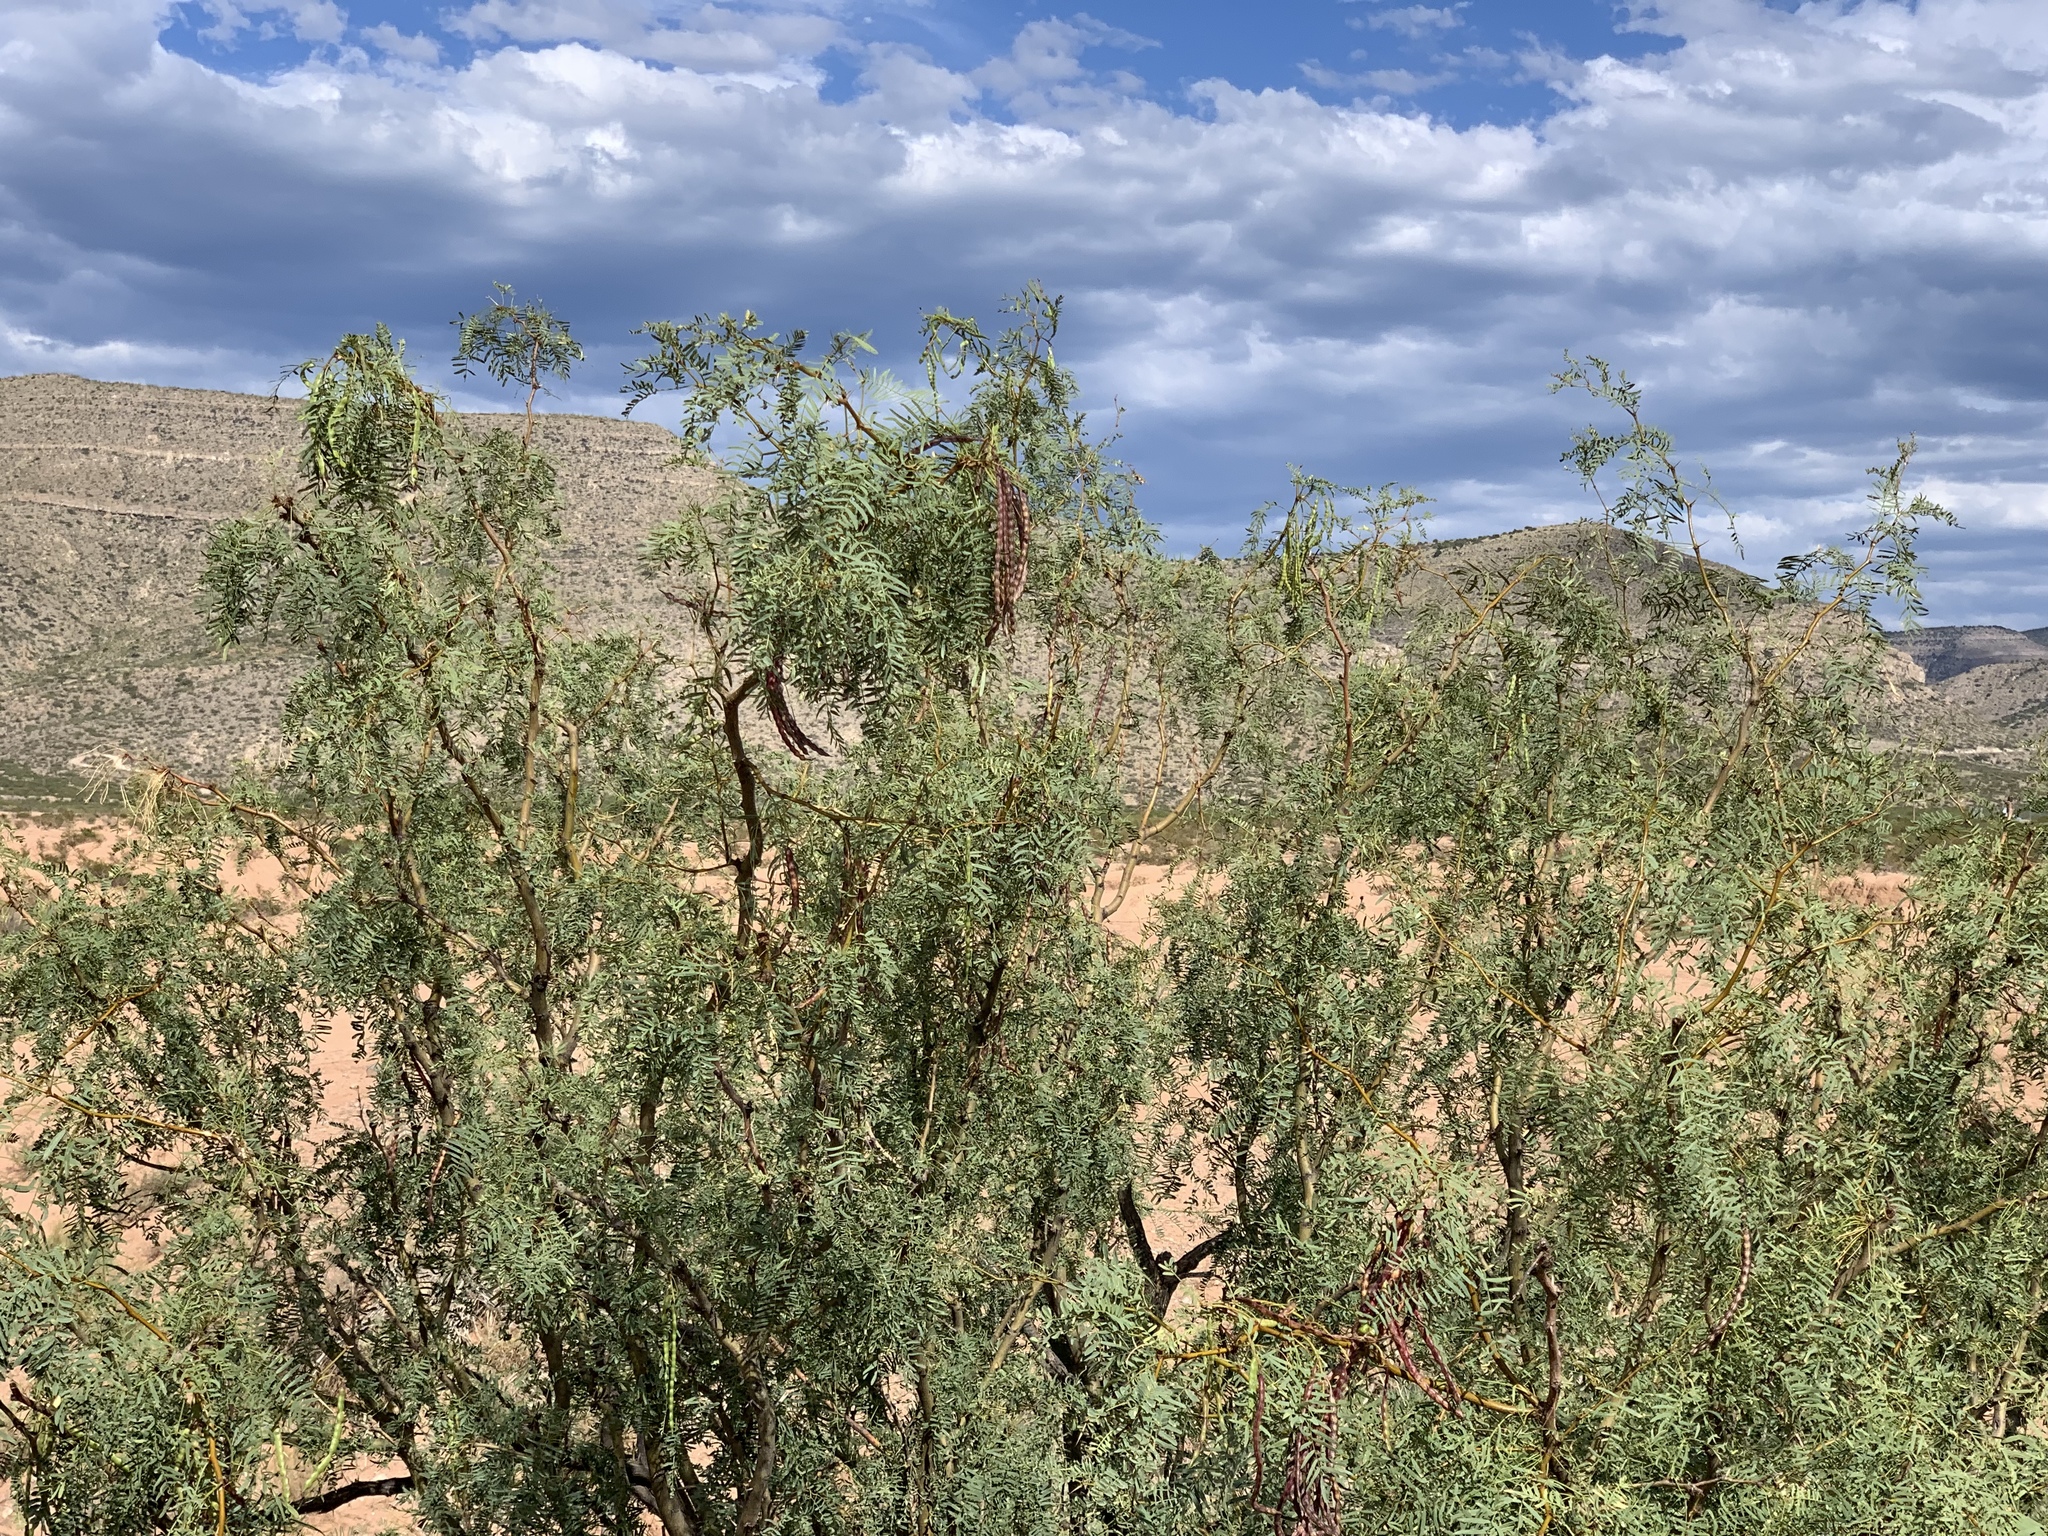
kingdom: Plantae
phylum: Tracheophyta
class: Magnoliopsida
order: Fabales
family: Fabaceae
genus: Prosopis
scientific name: Prosopis glandulosa
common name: Honey mesquite
